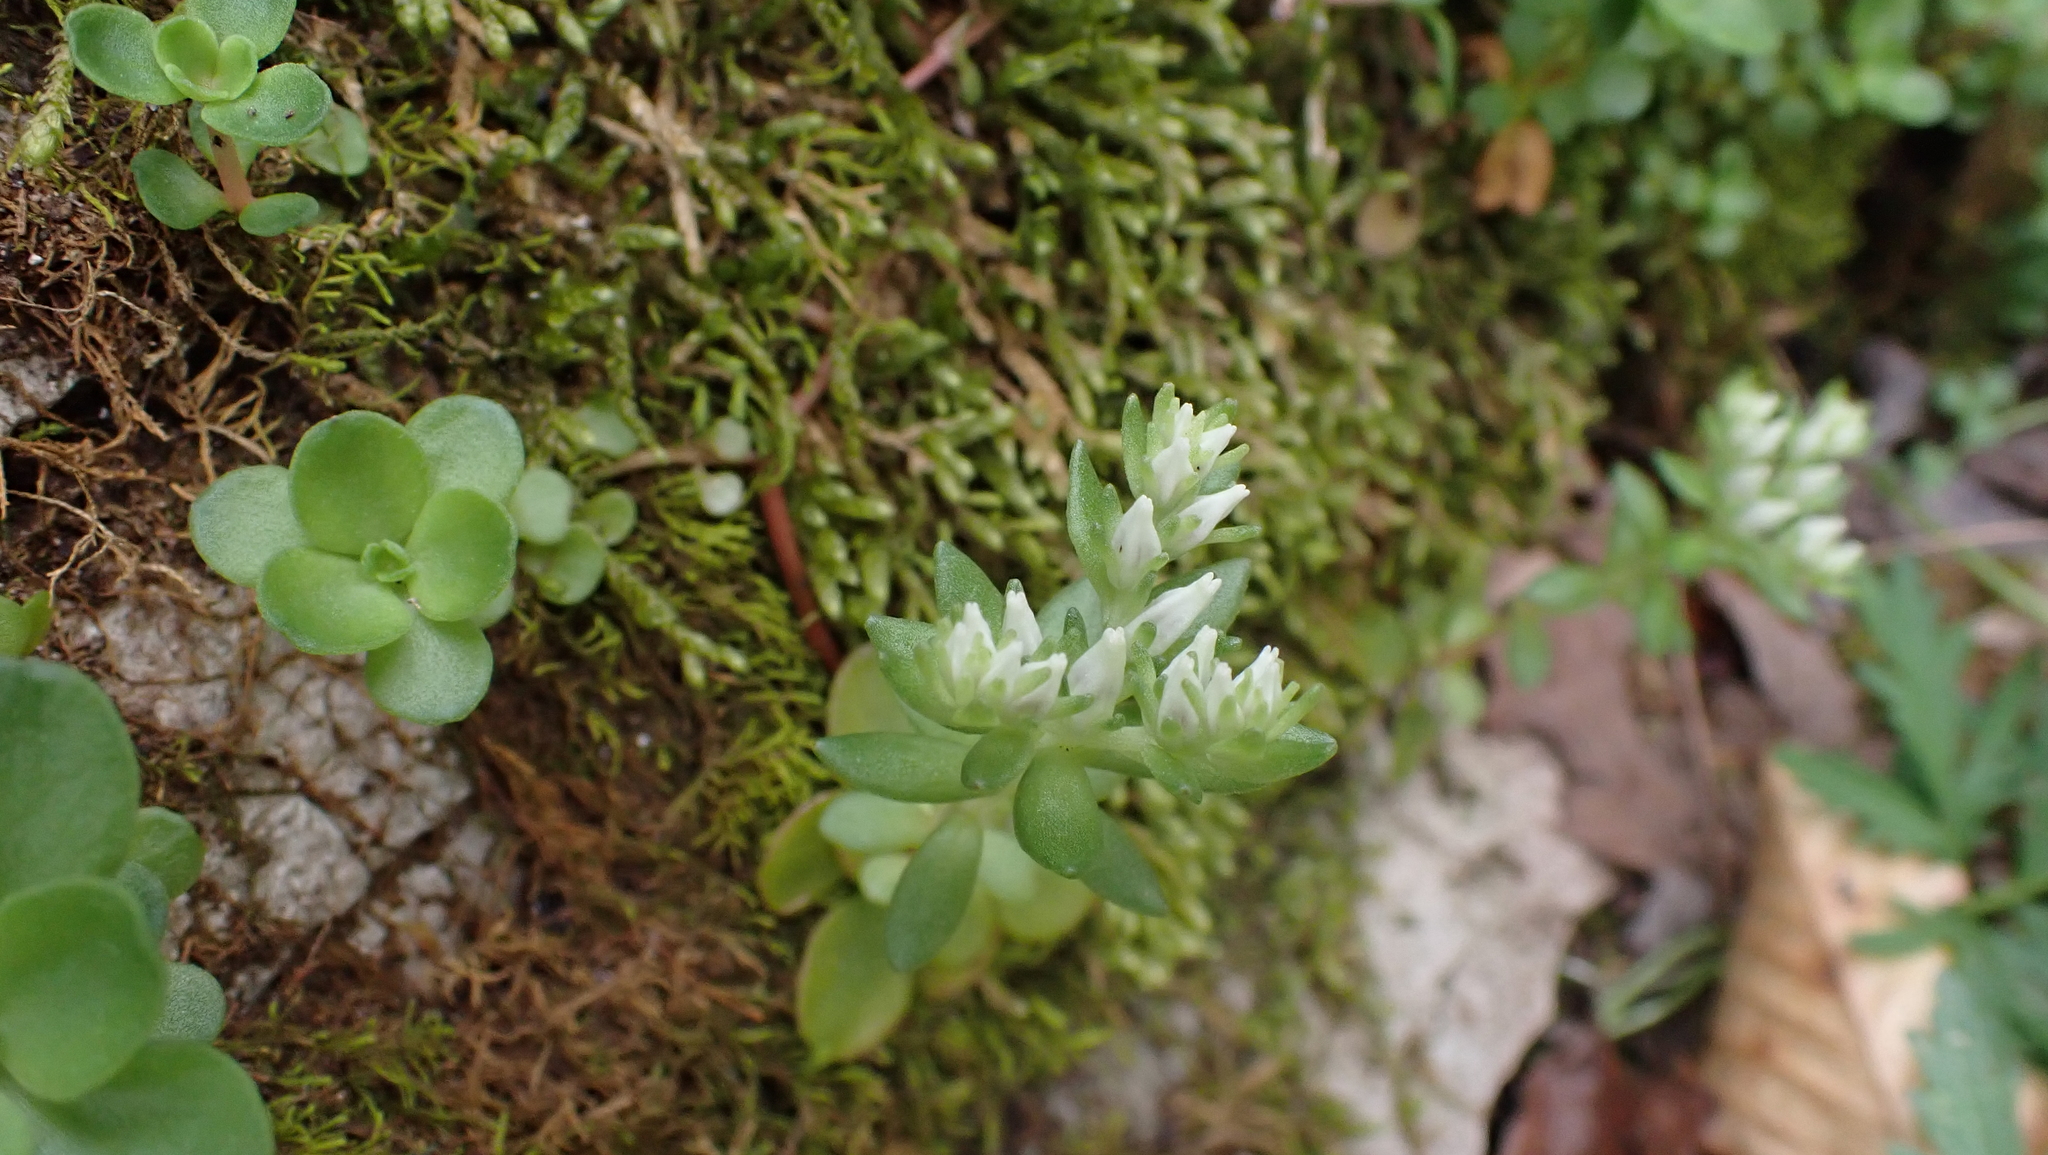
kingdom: Plantae
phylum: Tracheophyta
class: Magnoliopsida
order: Saxifragales
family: Crassulaceae
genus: Sedum
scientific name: Sedum ternatum
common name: Wild stonecrop
